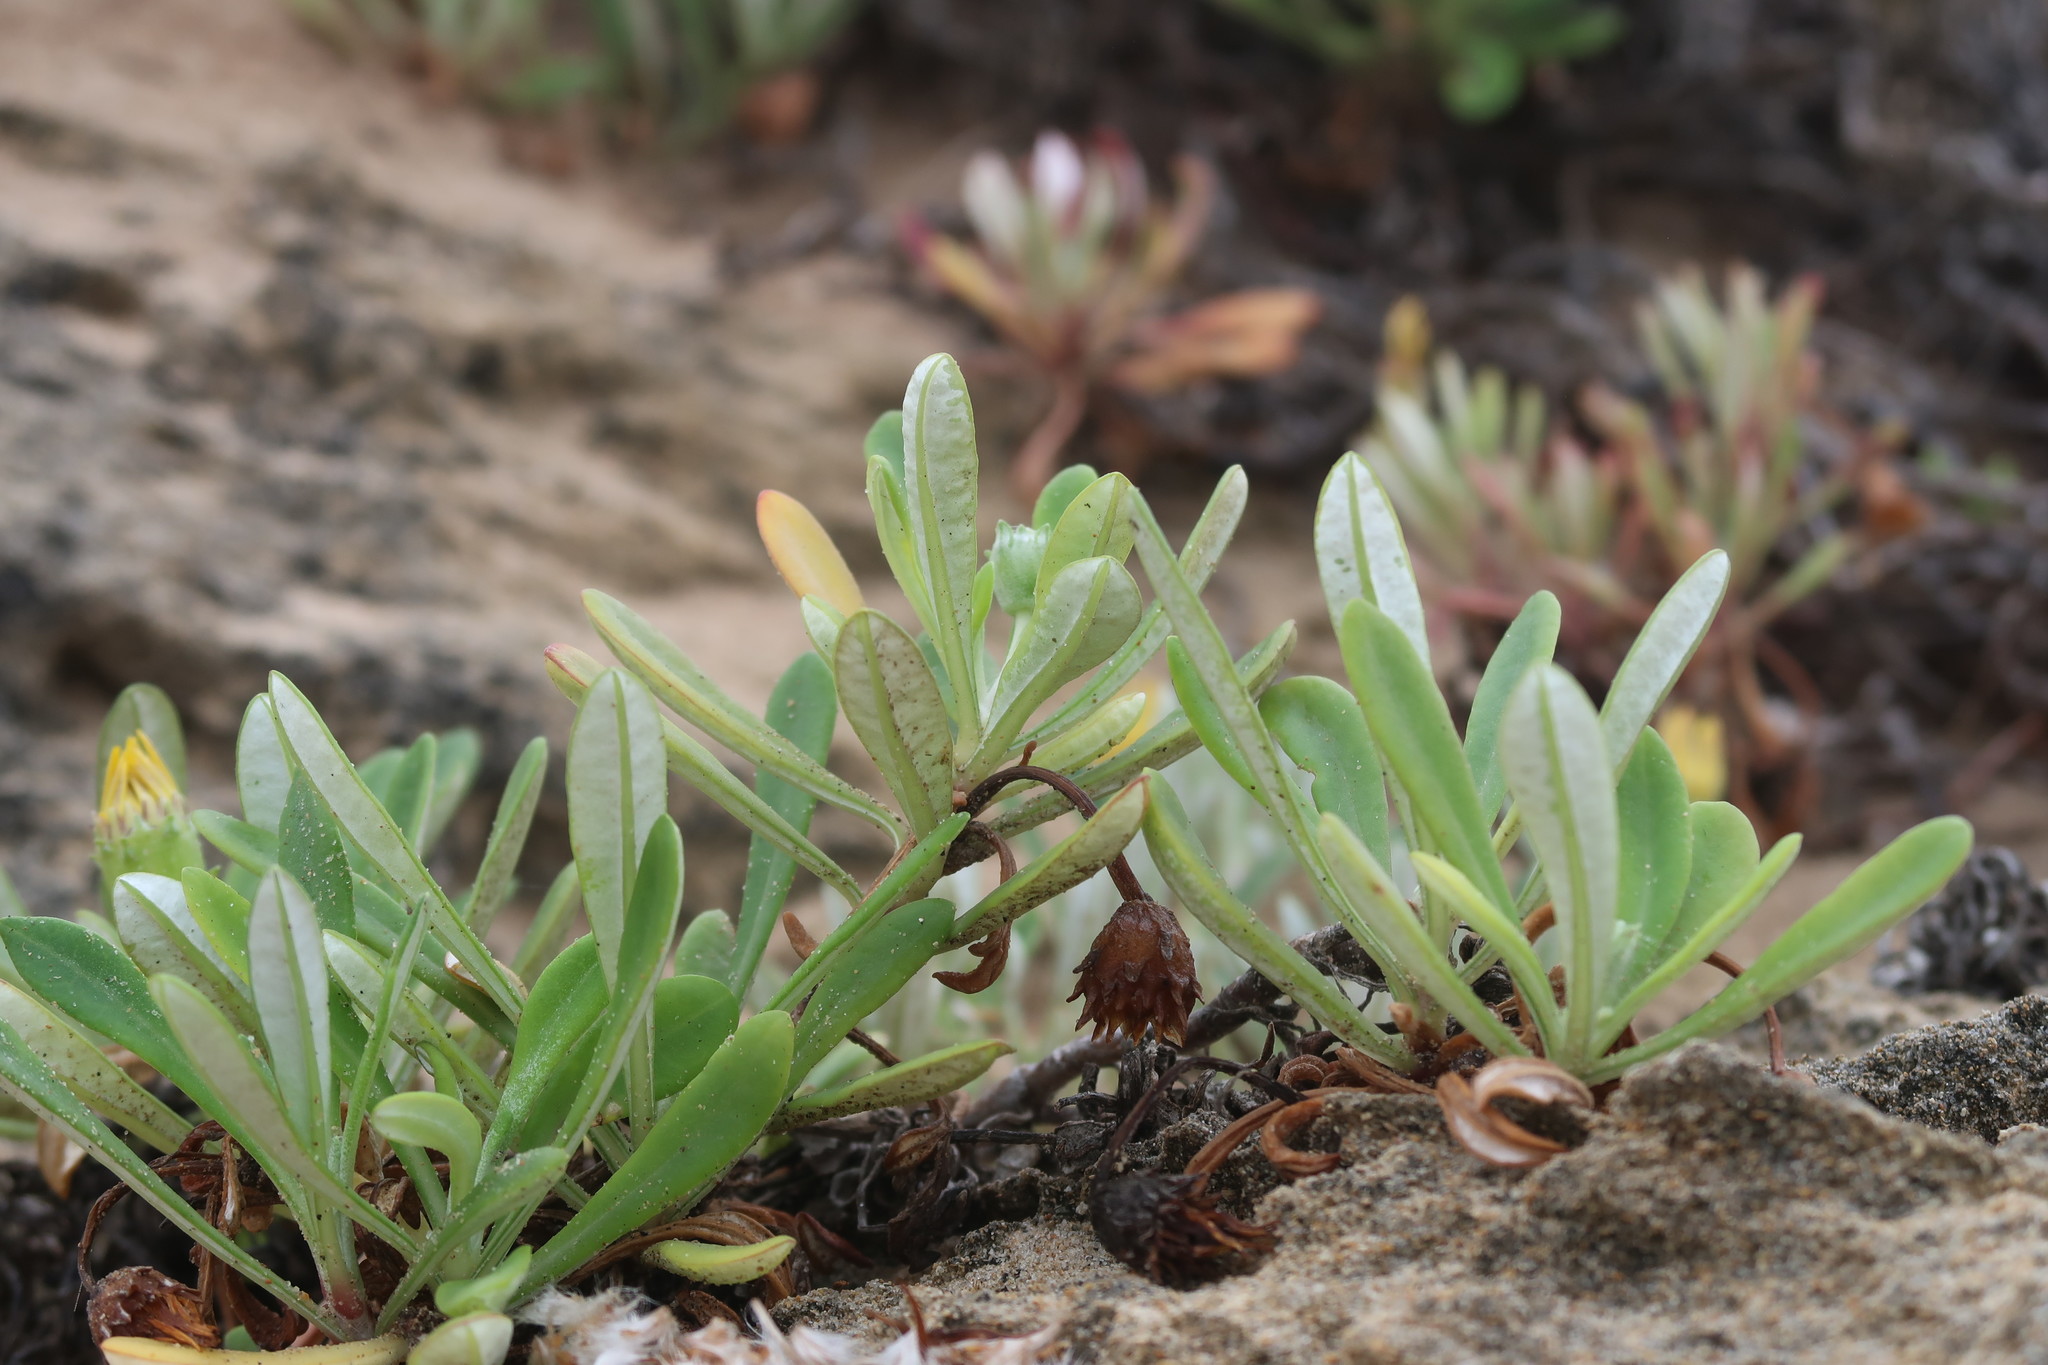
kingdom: Plantae
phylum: Tracheophyta
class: Magnoliopsida
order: Asterales
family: Asteraceae
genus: Gazania
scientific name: Gazania rigens
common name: Treasureflower
